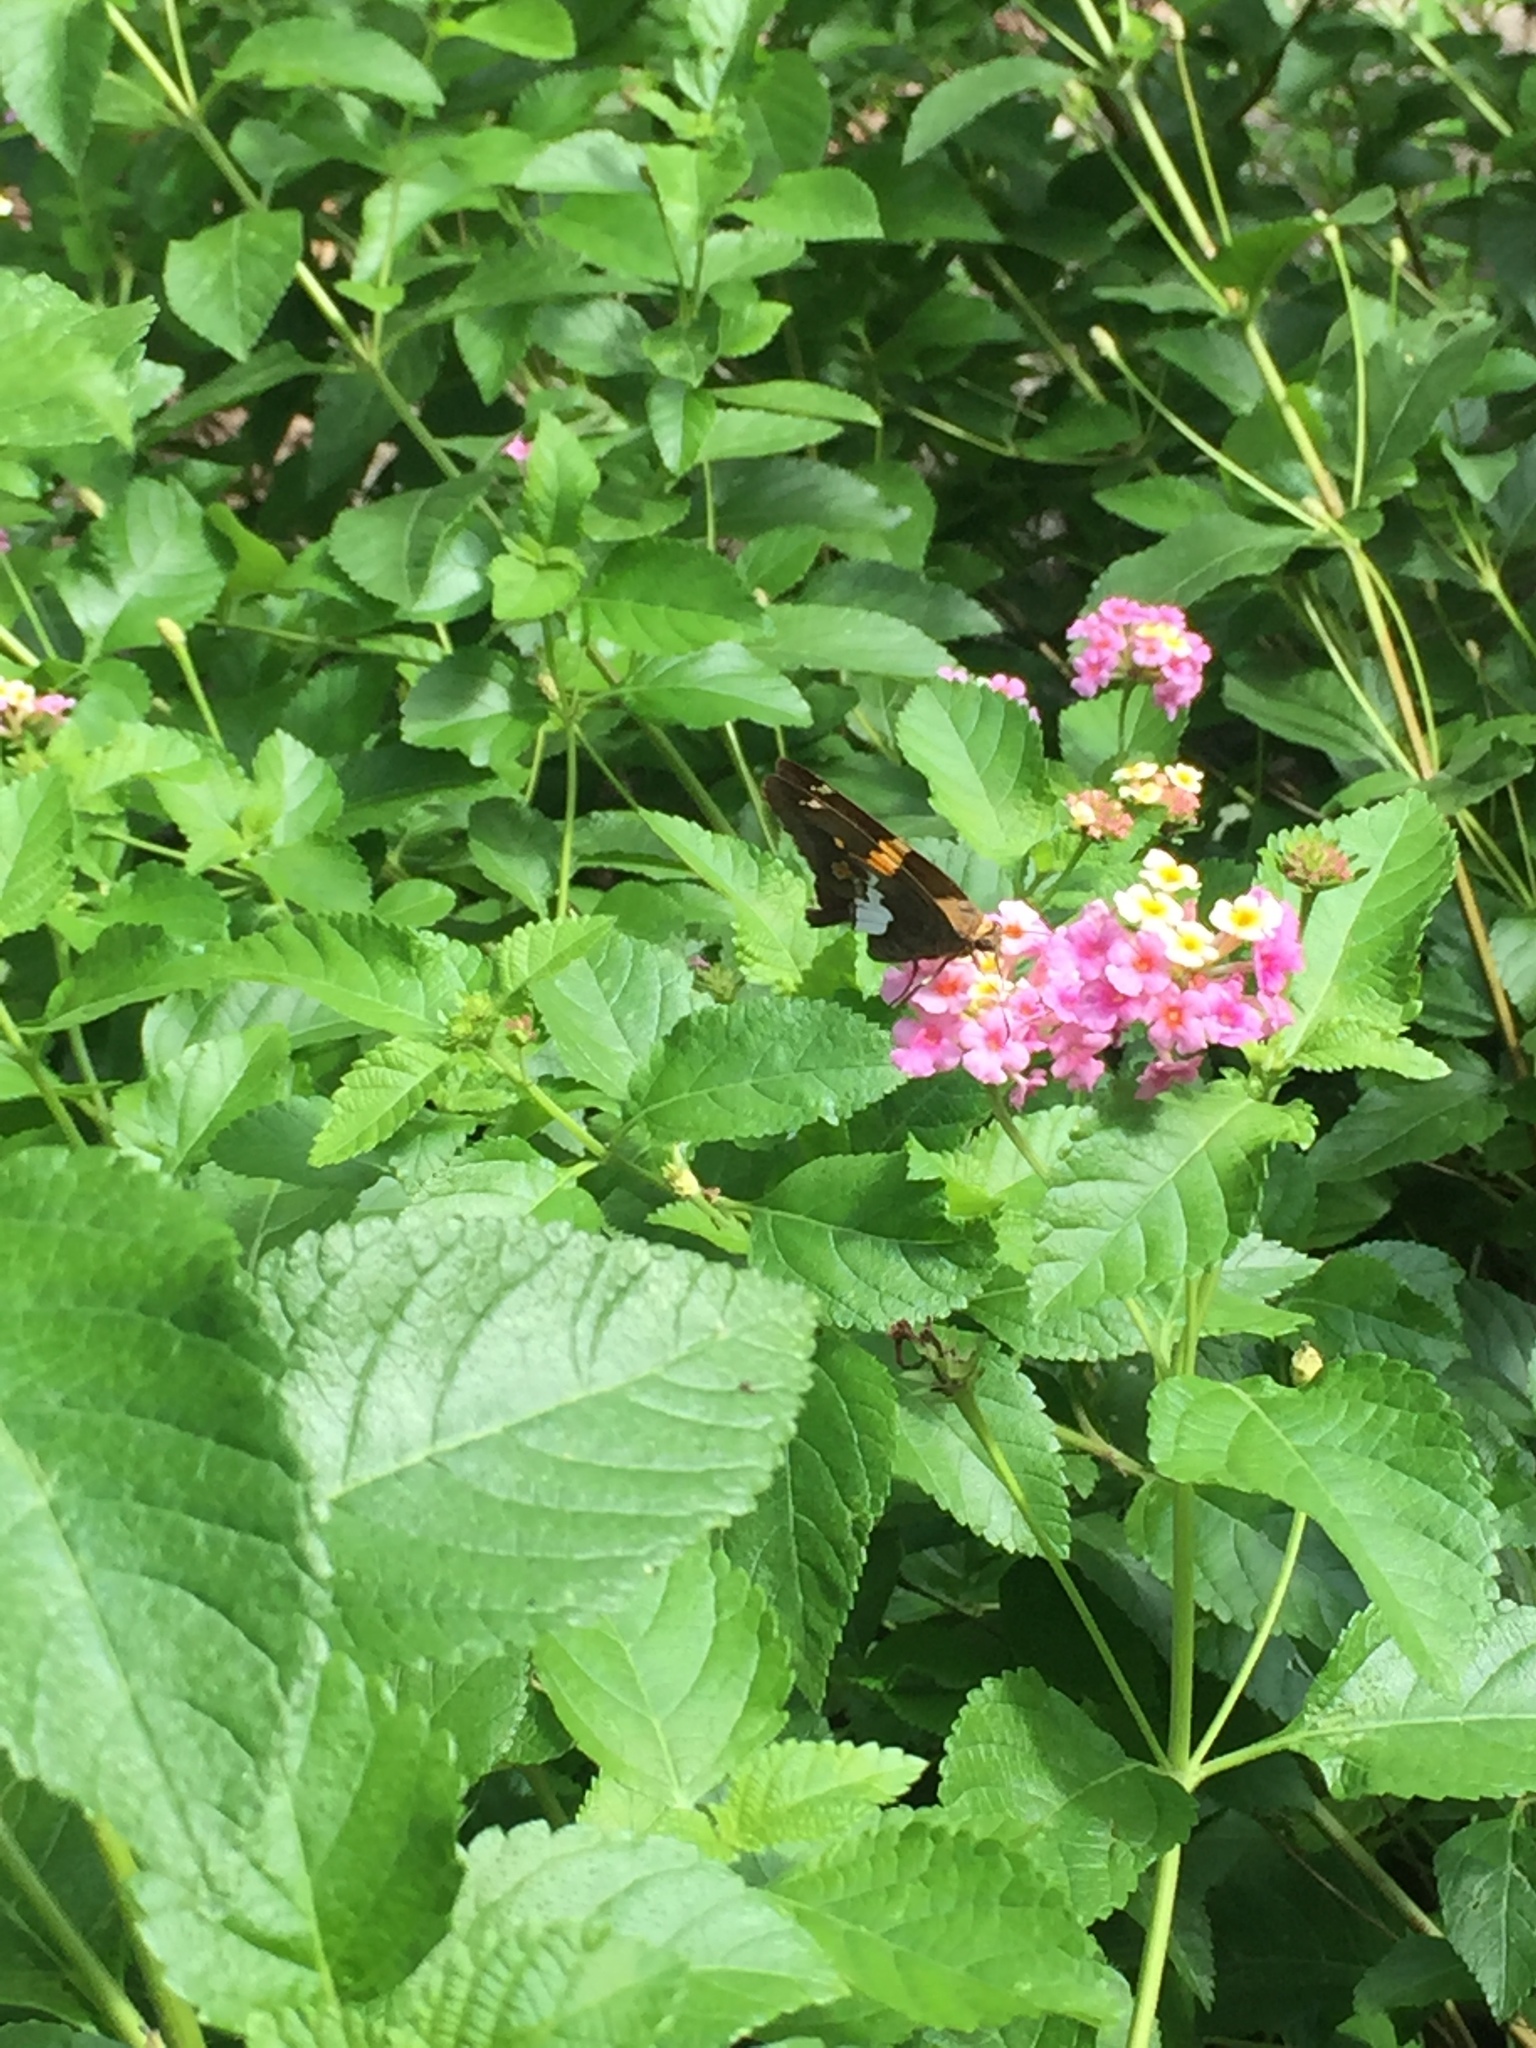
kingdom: Animalia
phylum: Arthropoda
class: Insecta
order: Lepidoptera
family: Hesperiidae
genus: Epargyreus
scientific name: Epargyreus clarus
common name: Silver-spotted skipper
